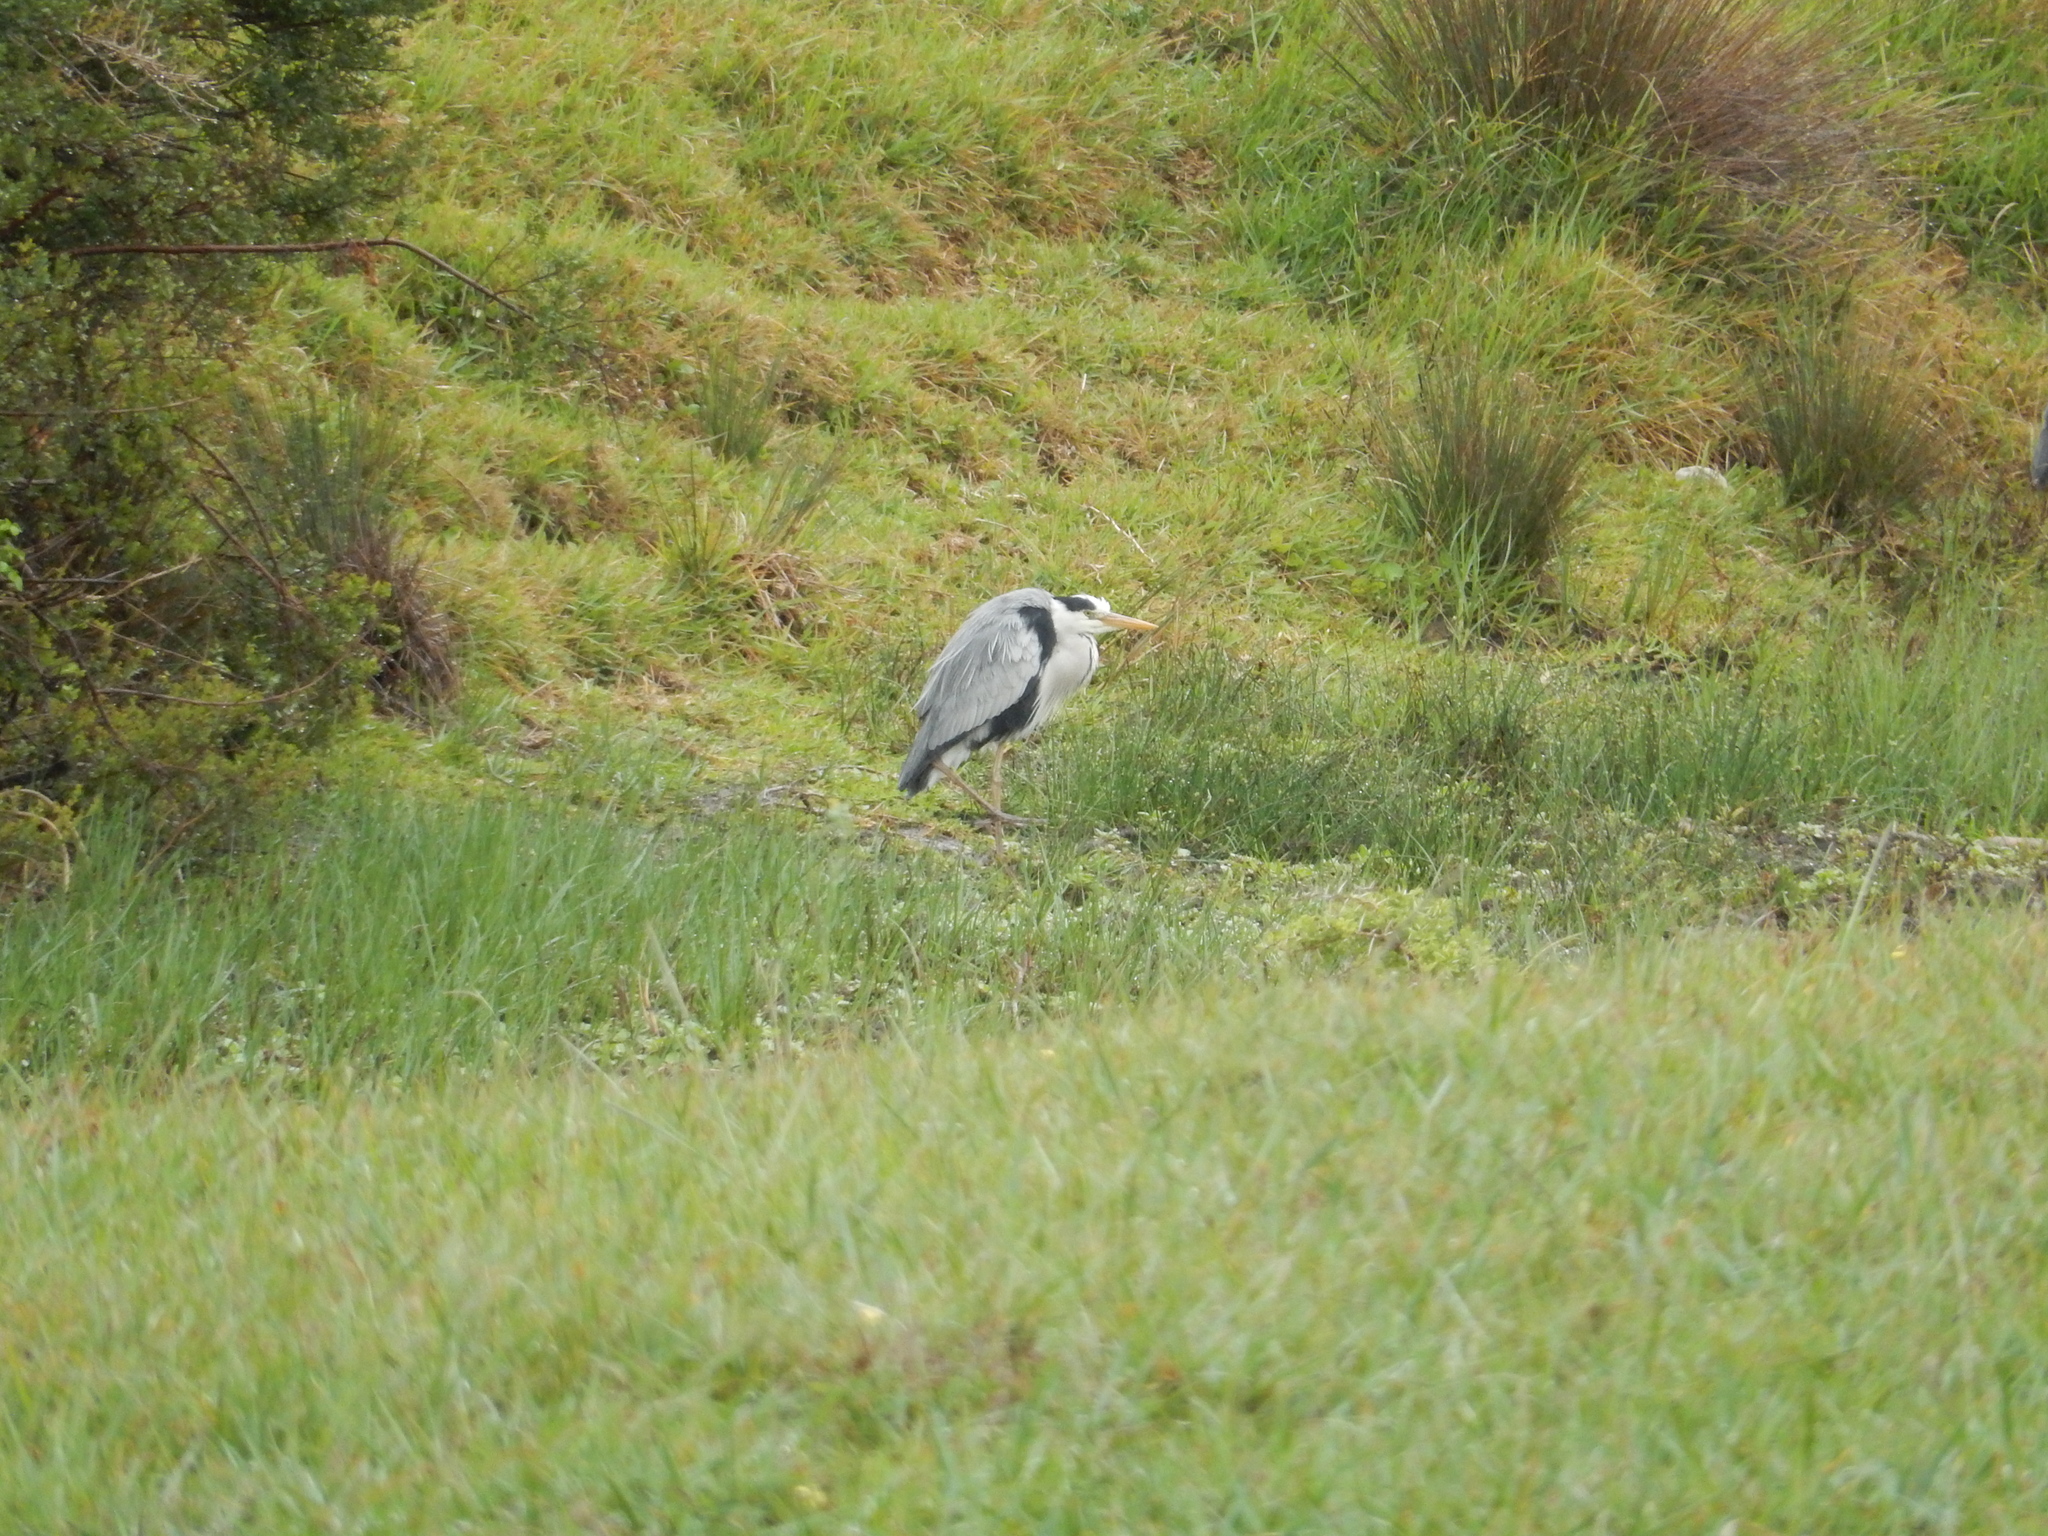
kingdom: Animalia
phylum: Chordata
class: Aves
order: Pelecaniformes
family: Ardeidae
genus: Ardea
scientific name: Ardea cinerea
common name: Grey heron
